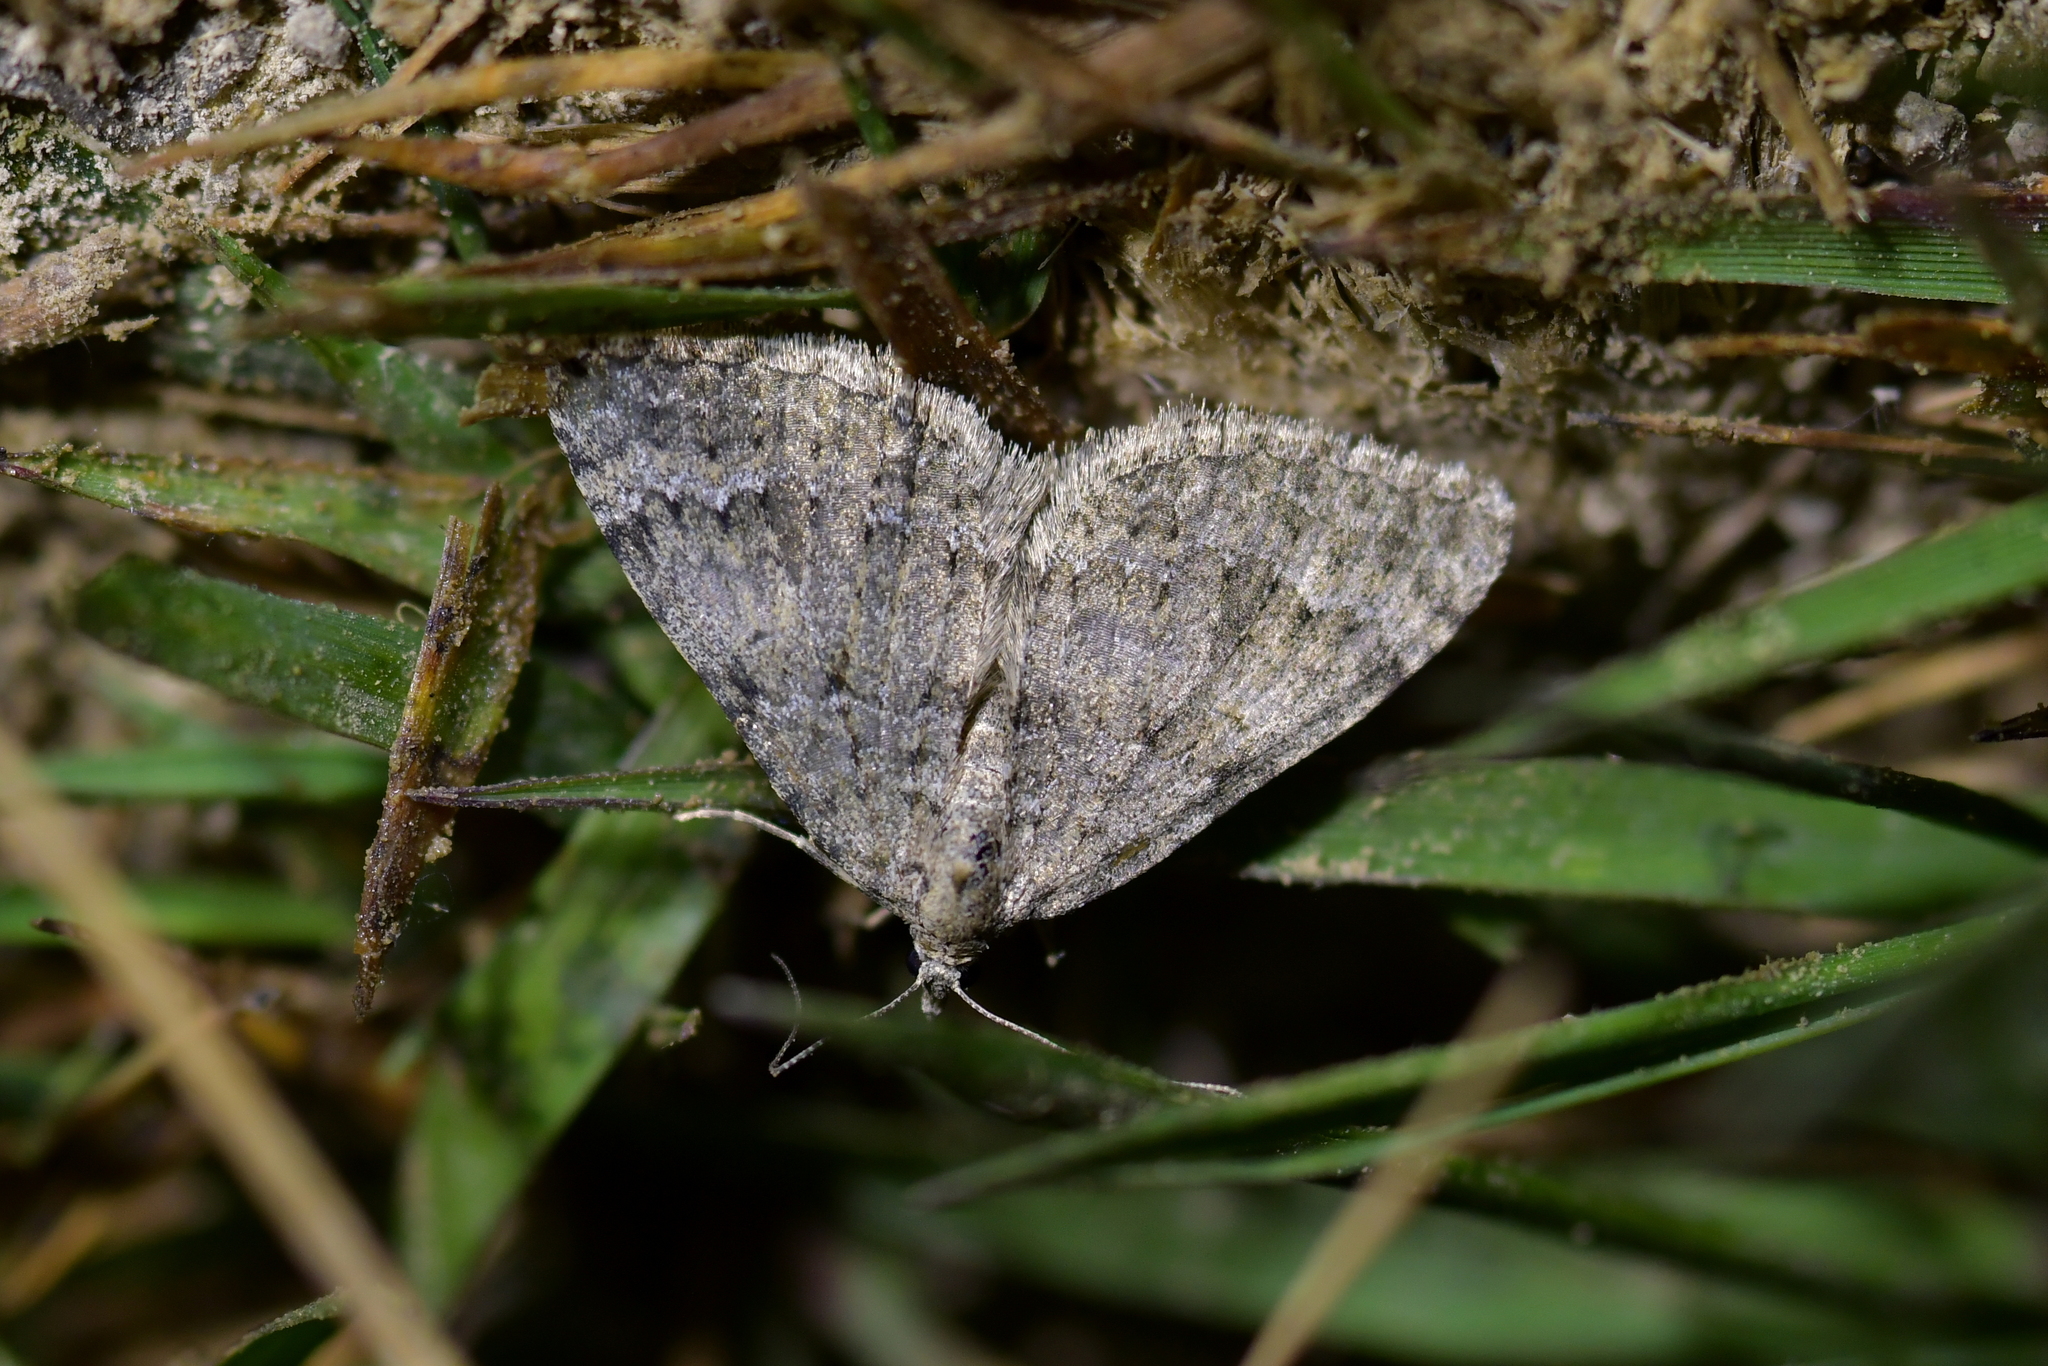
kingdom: Animalia
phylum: Arthropoda
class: Insecta
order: Lepidoptera
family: Geometridae
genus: Helastia
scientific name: Helastia corcularia
